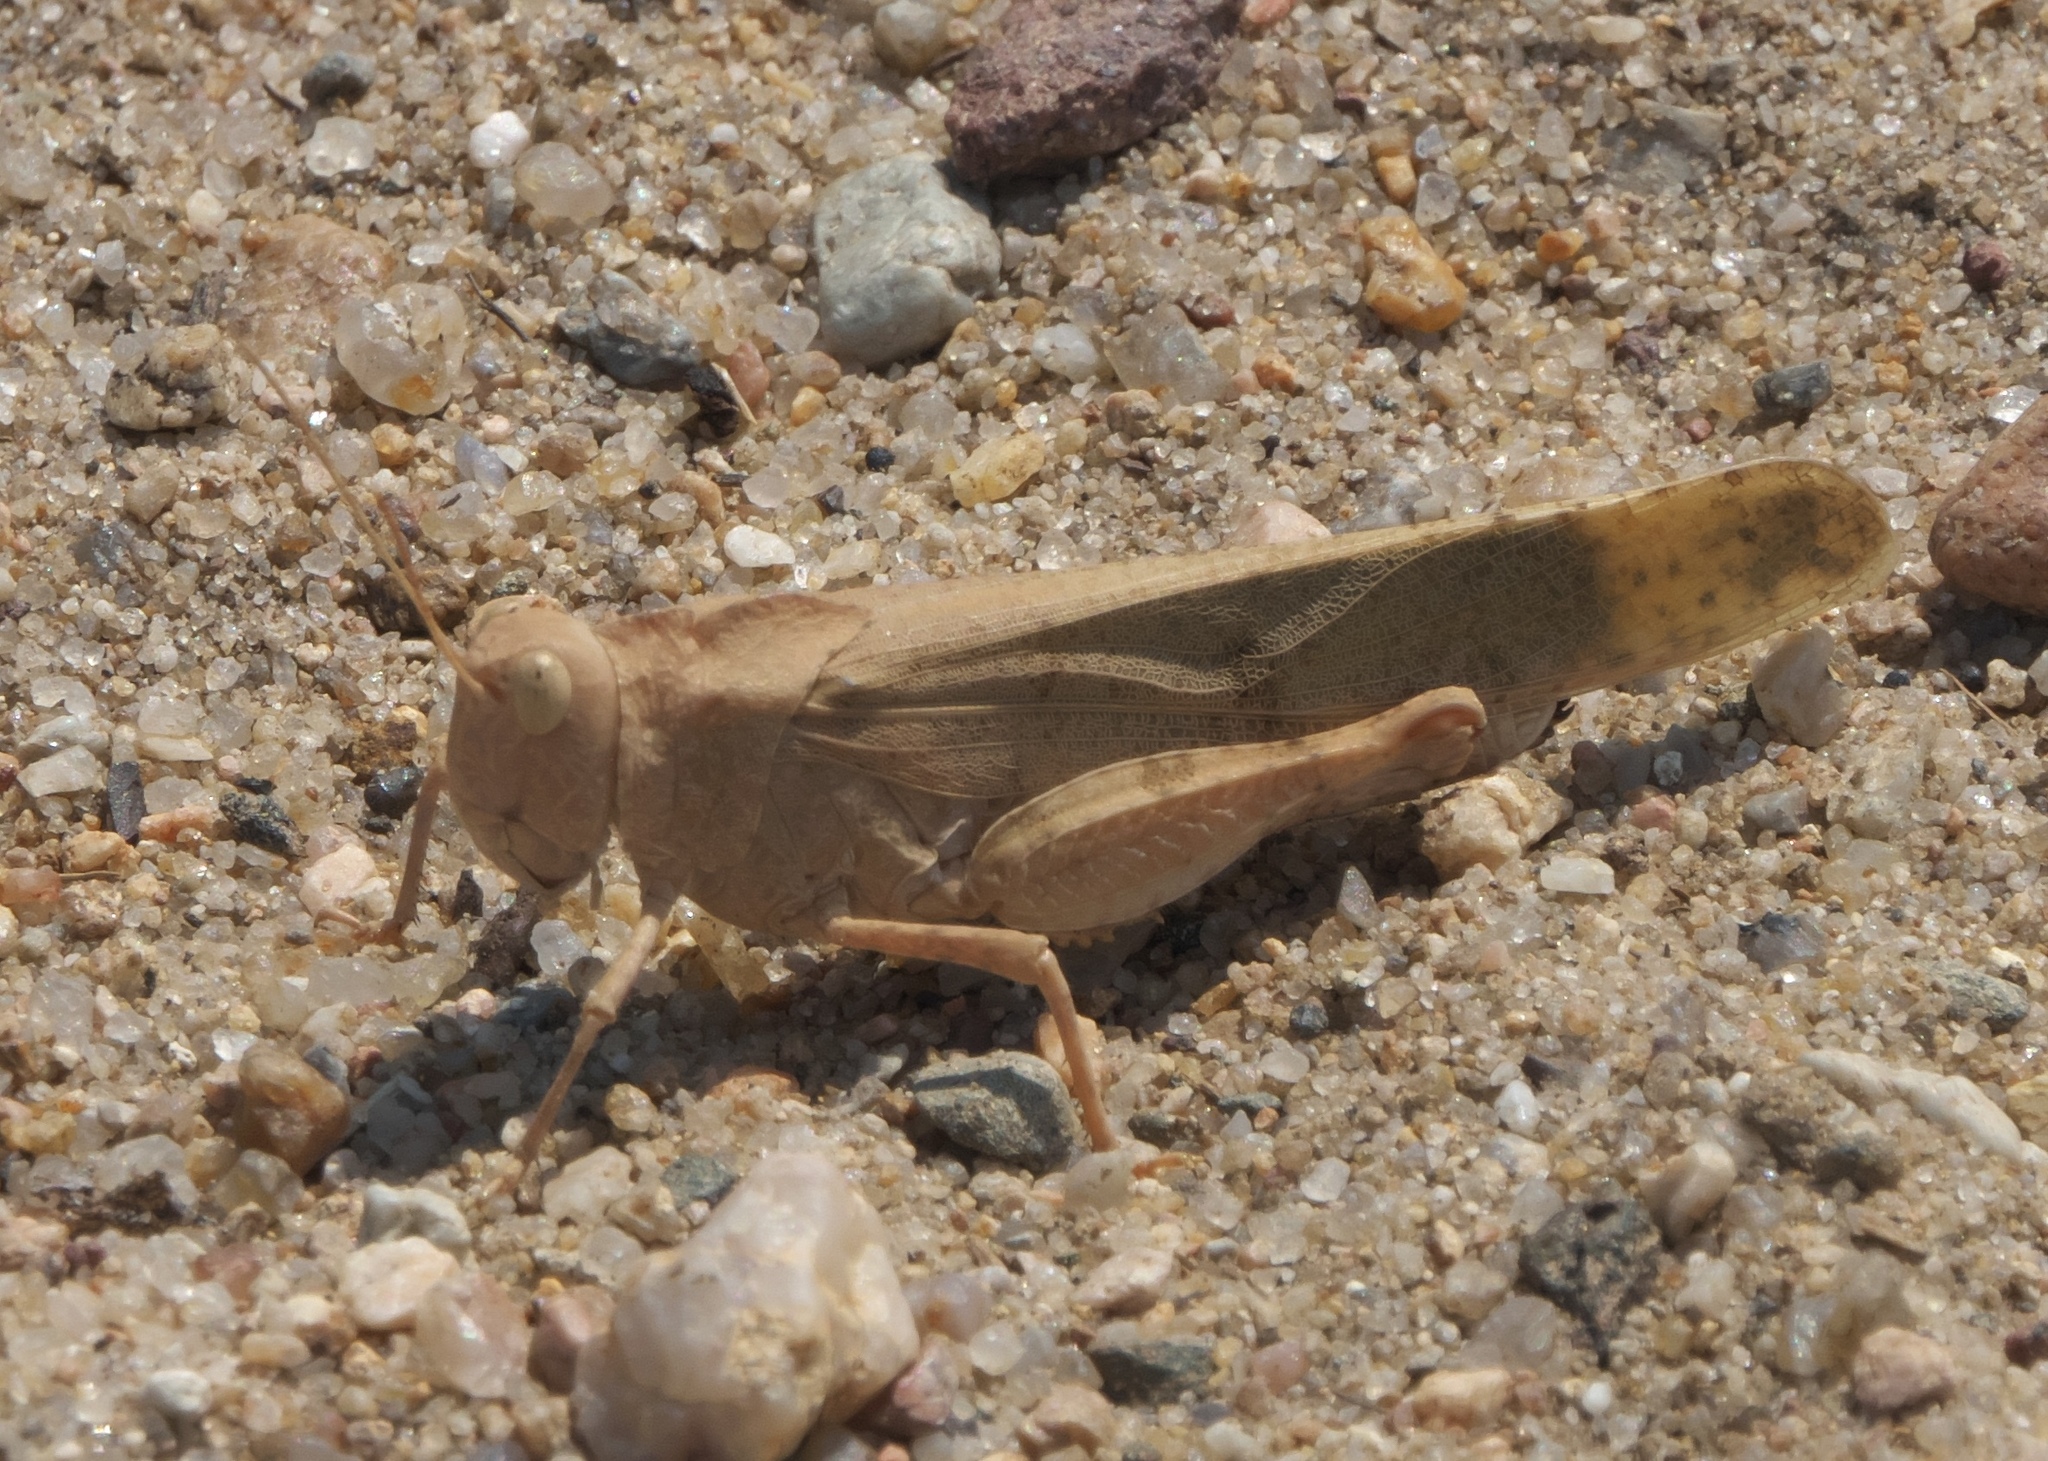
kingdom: Animalia
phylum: Arthropoda
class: Insecta
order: Orthoptera
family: Acrididae
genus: Dissosteira
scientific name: Dissosteira carolina
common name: Carolina grasshopper
